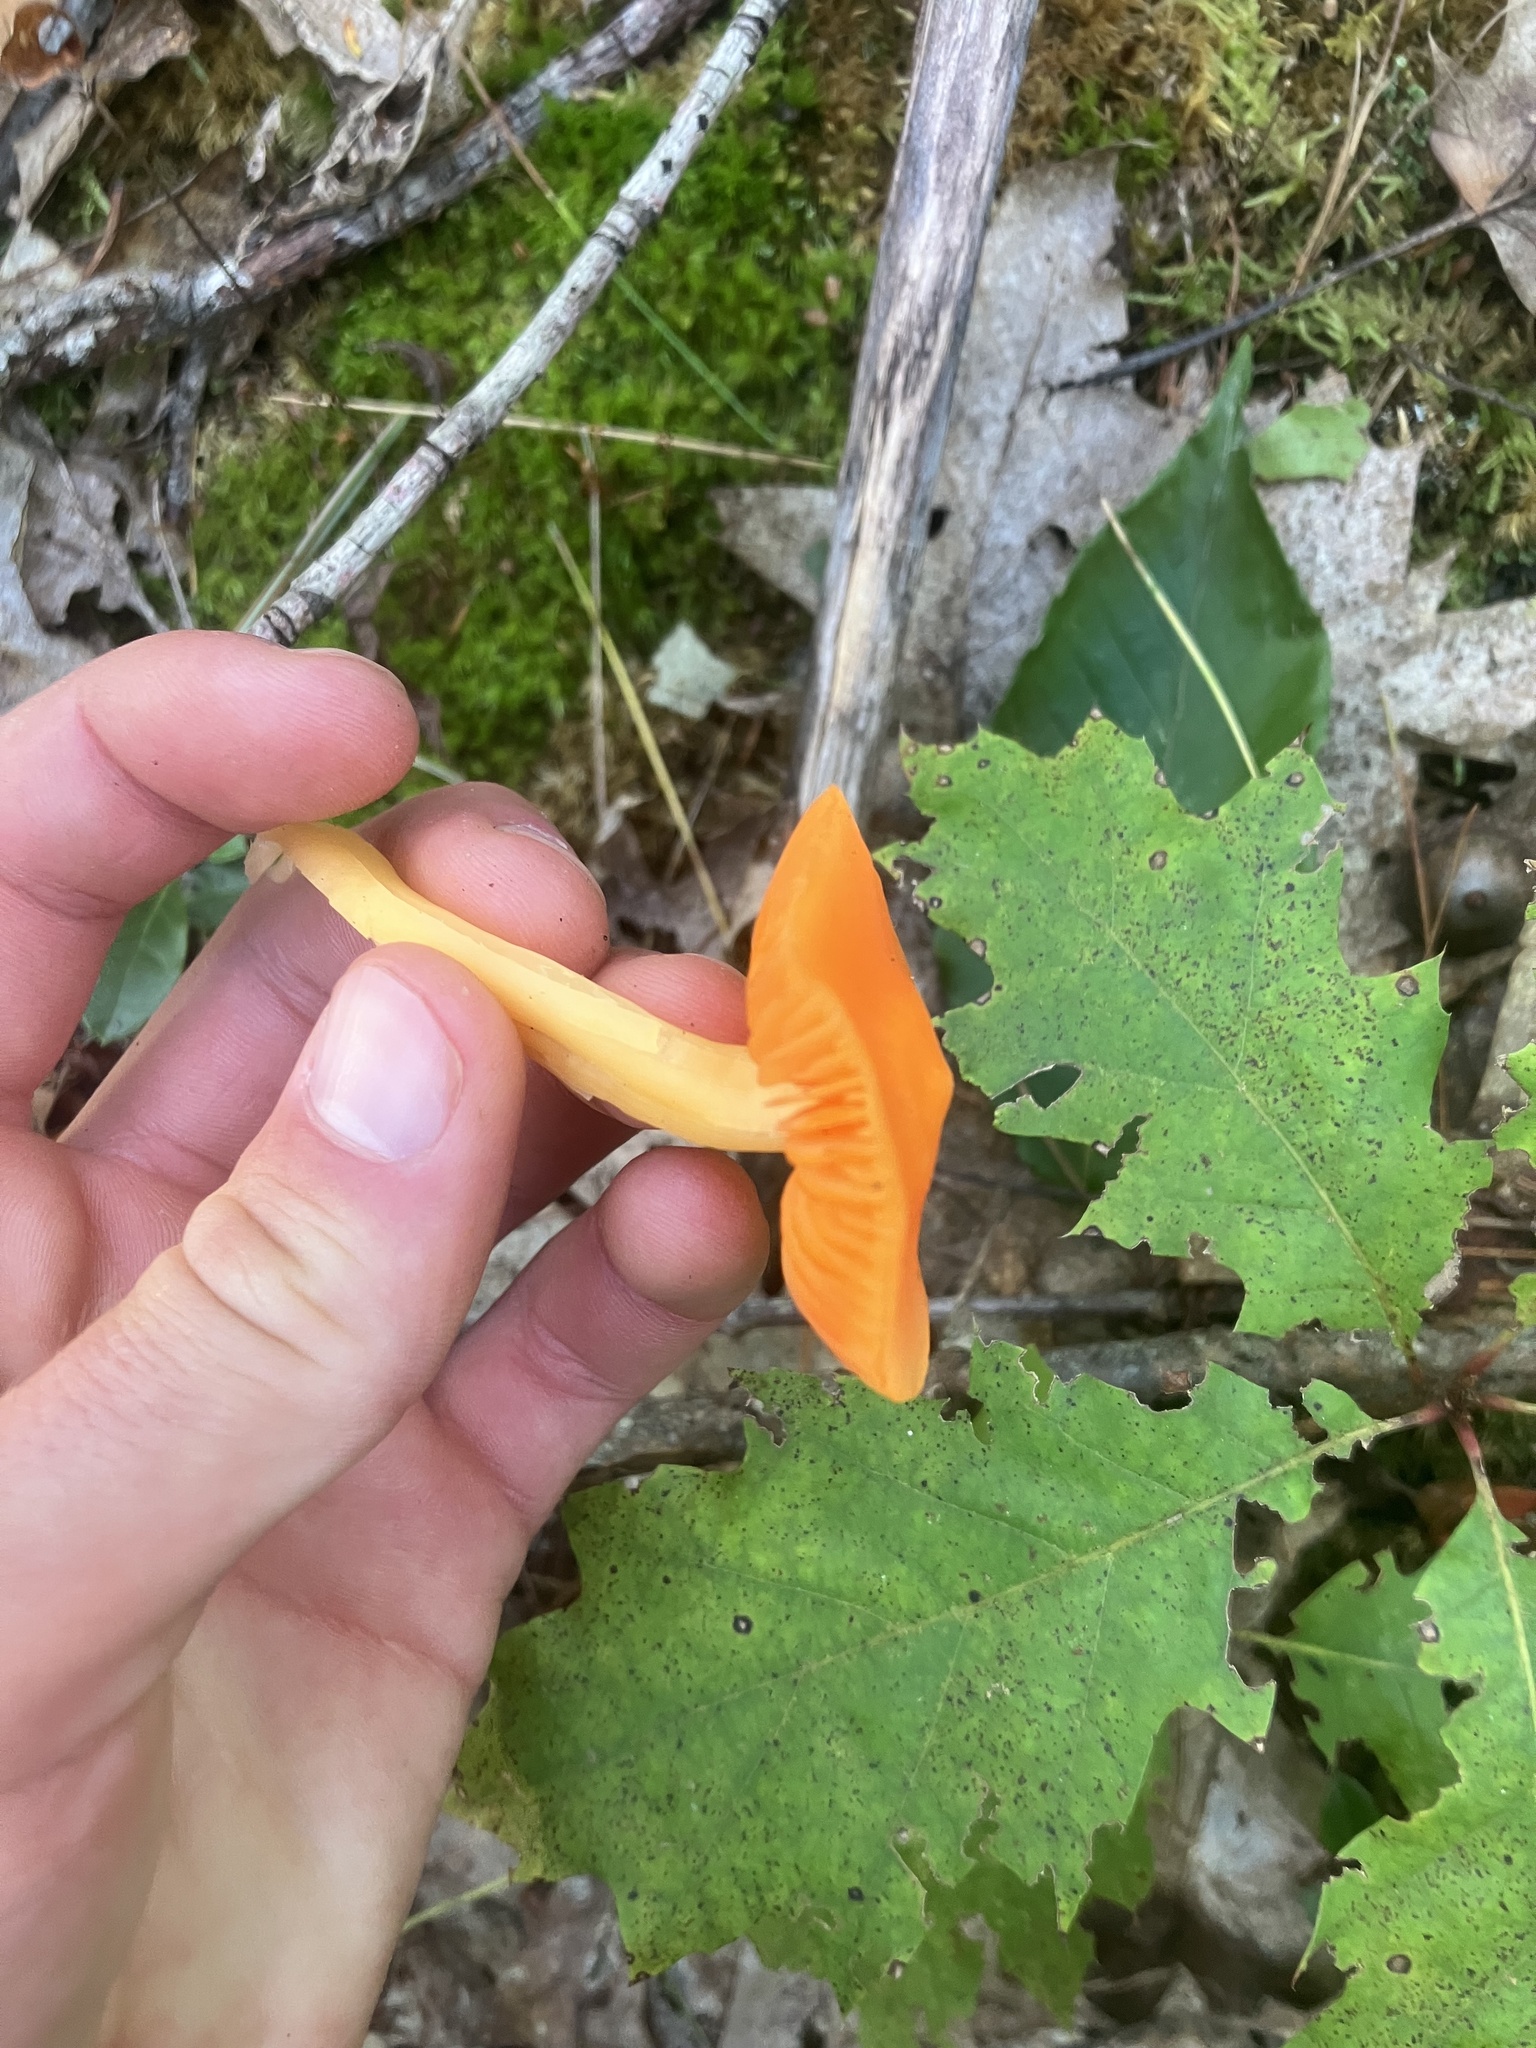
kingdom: Fungi
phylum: Basidiomycota
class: Agaricomycetes
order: Agaricales
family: Hygrophoraceae
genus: Humidicutis
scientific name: Humidicutis marginata
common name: Orange gilled waxcap
